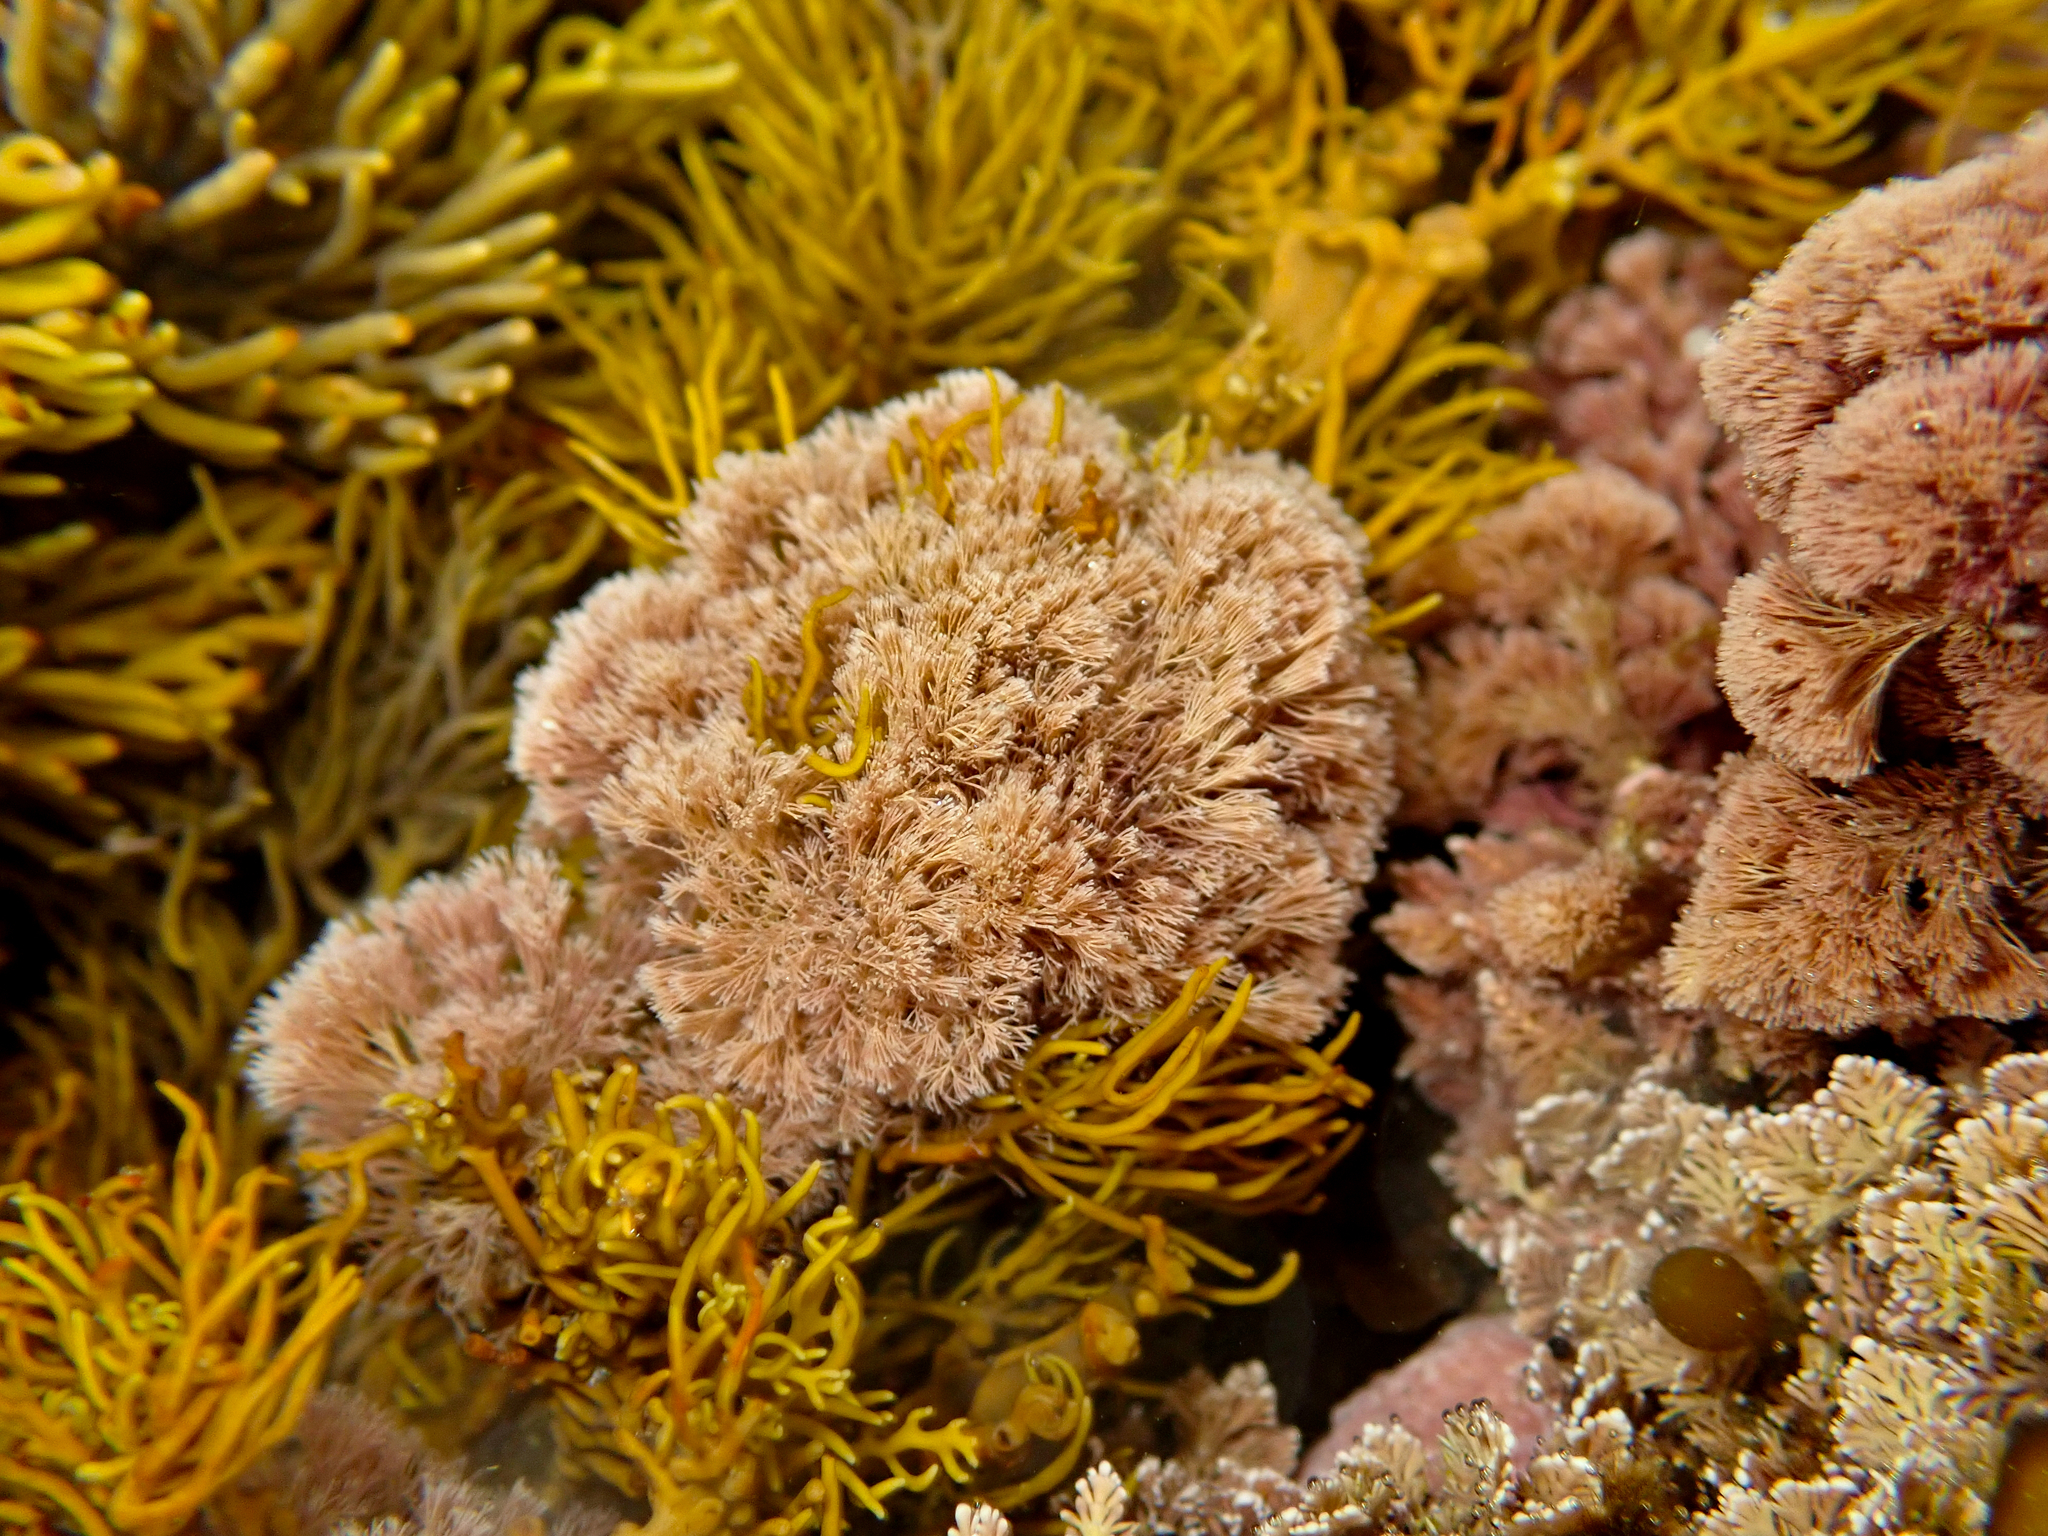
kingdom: Plantae
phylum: Rhodophyta
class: Florideophyceae
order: Corallinales
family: Corallinaceae
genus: Jania
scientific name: Jania sphaeroramosa
